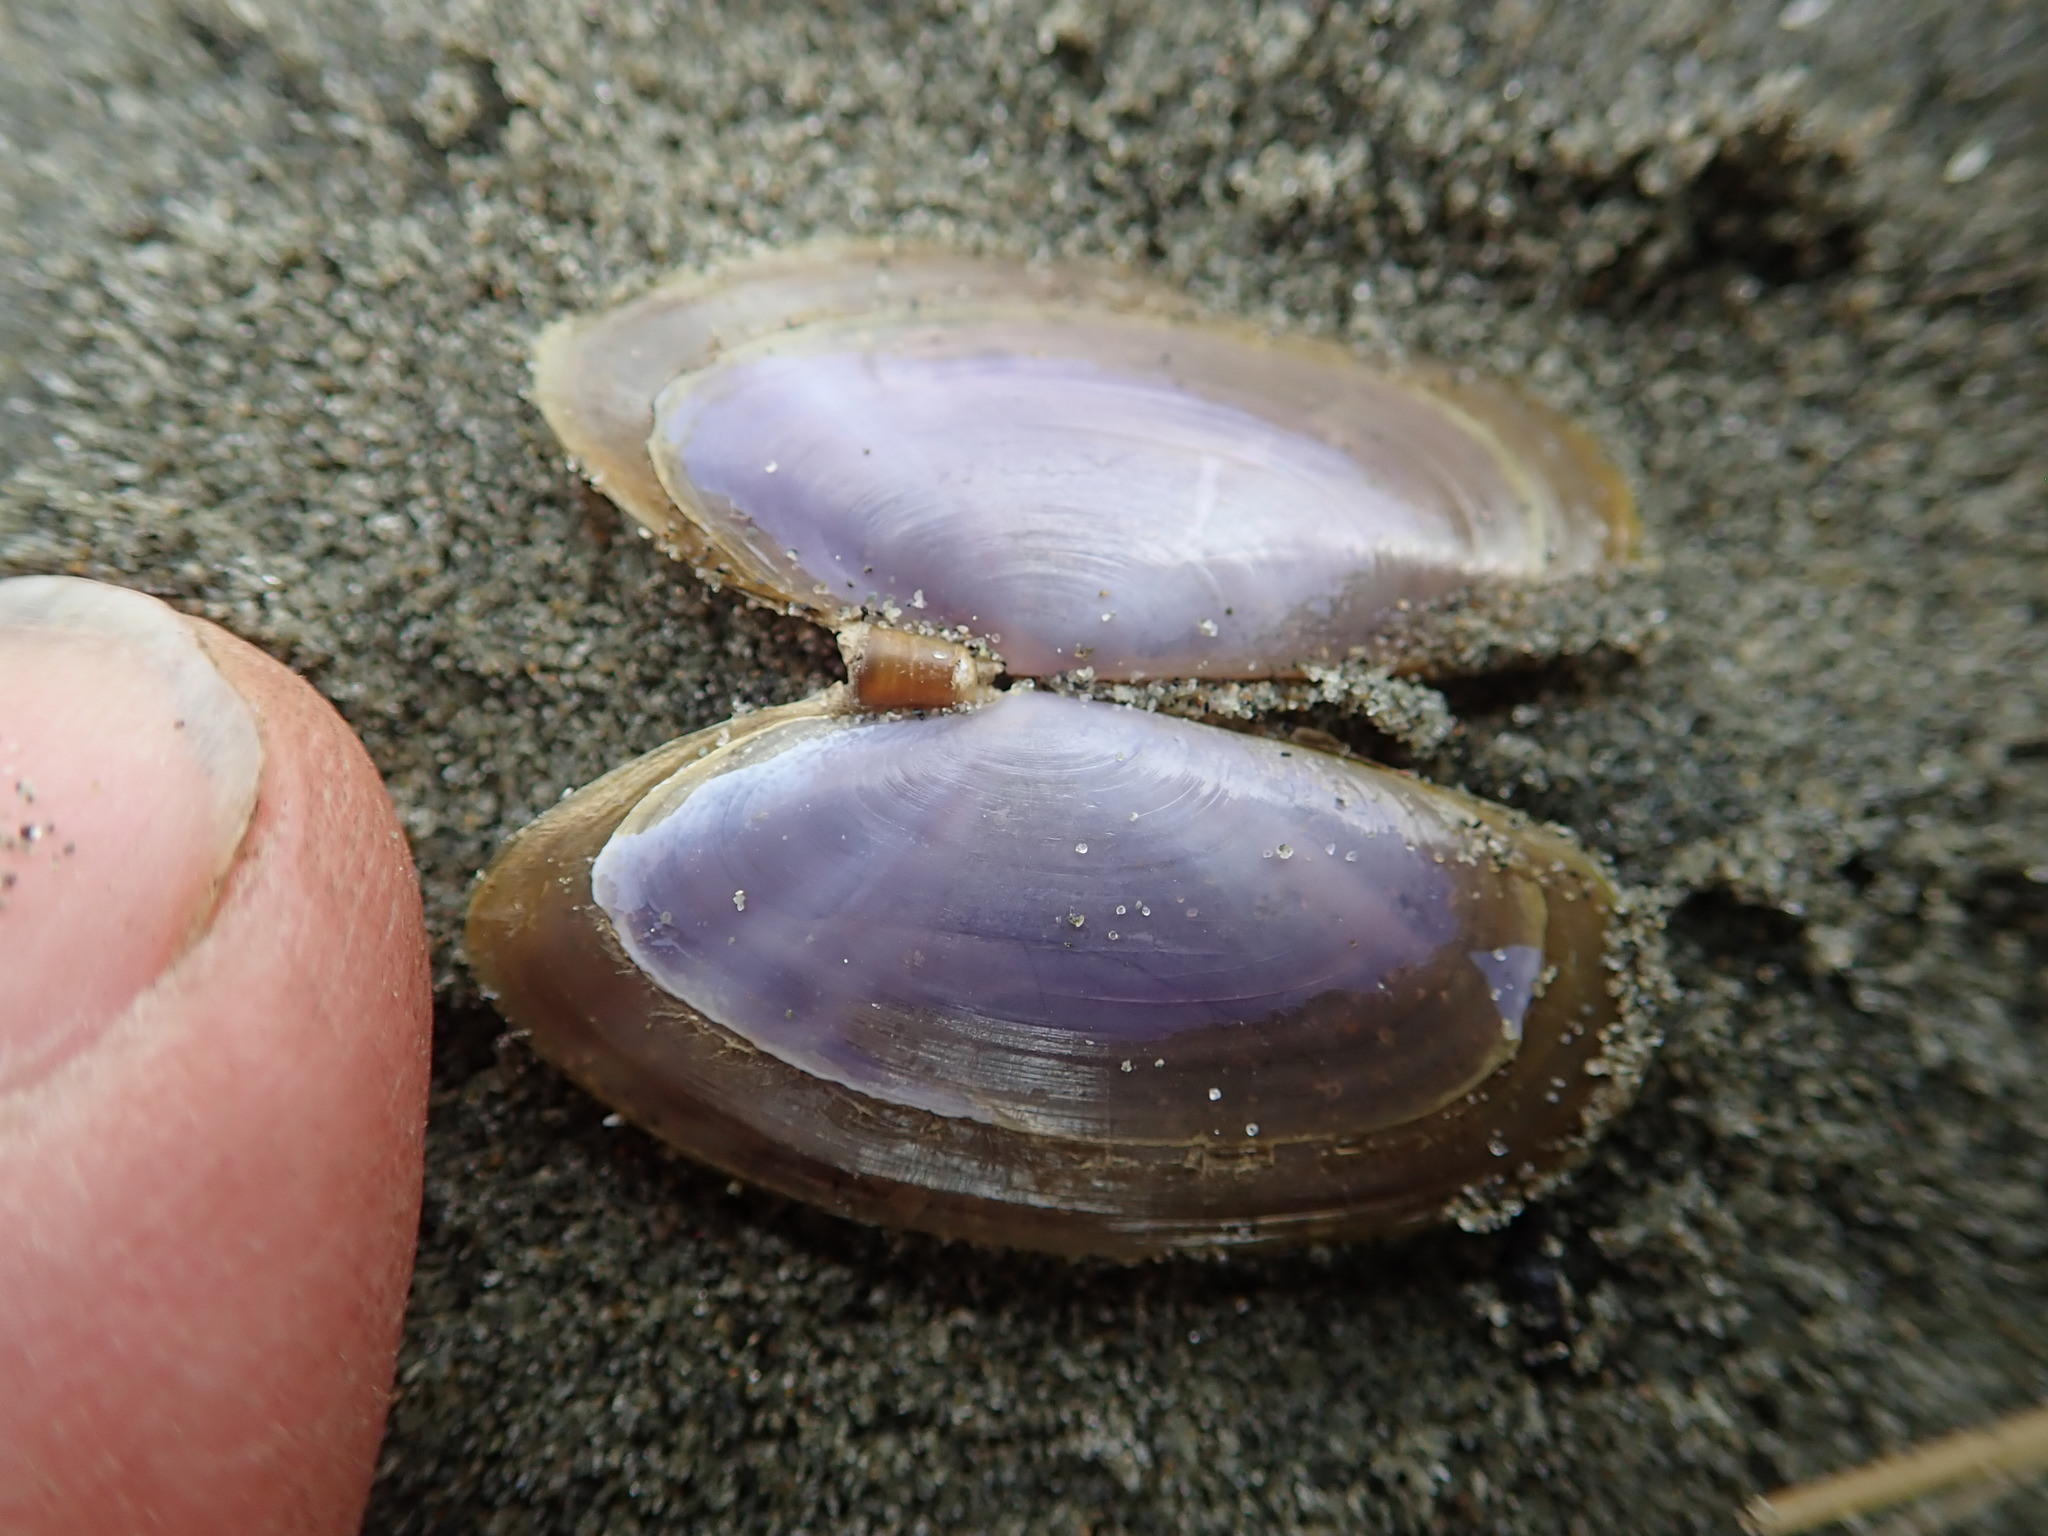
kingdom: Animalia
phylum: Mollusca
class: Bivalvia
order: Cardiida
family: Psammobiidae
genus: Hiatula
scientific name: Hiatula nitida
